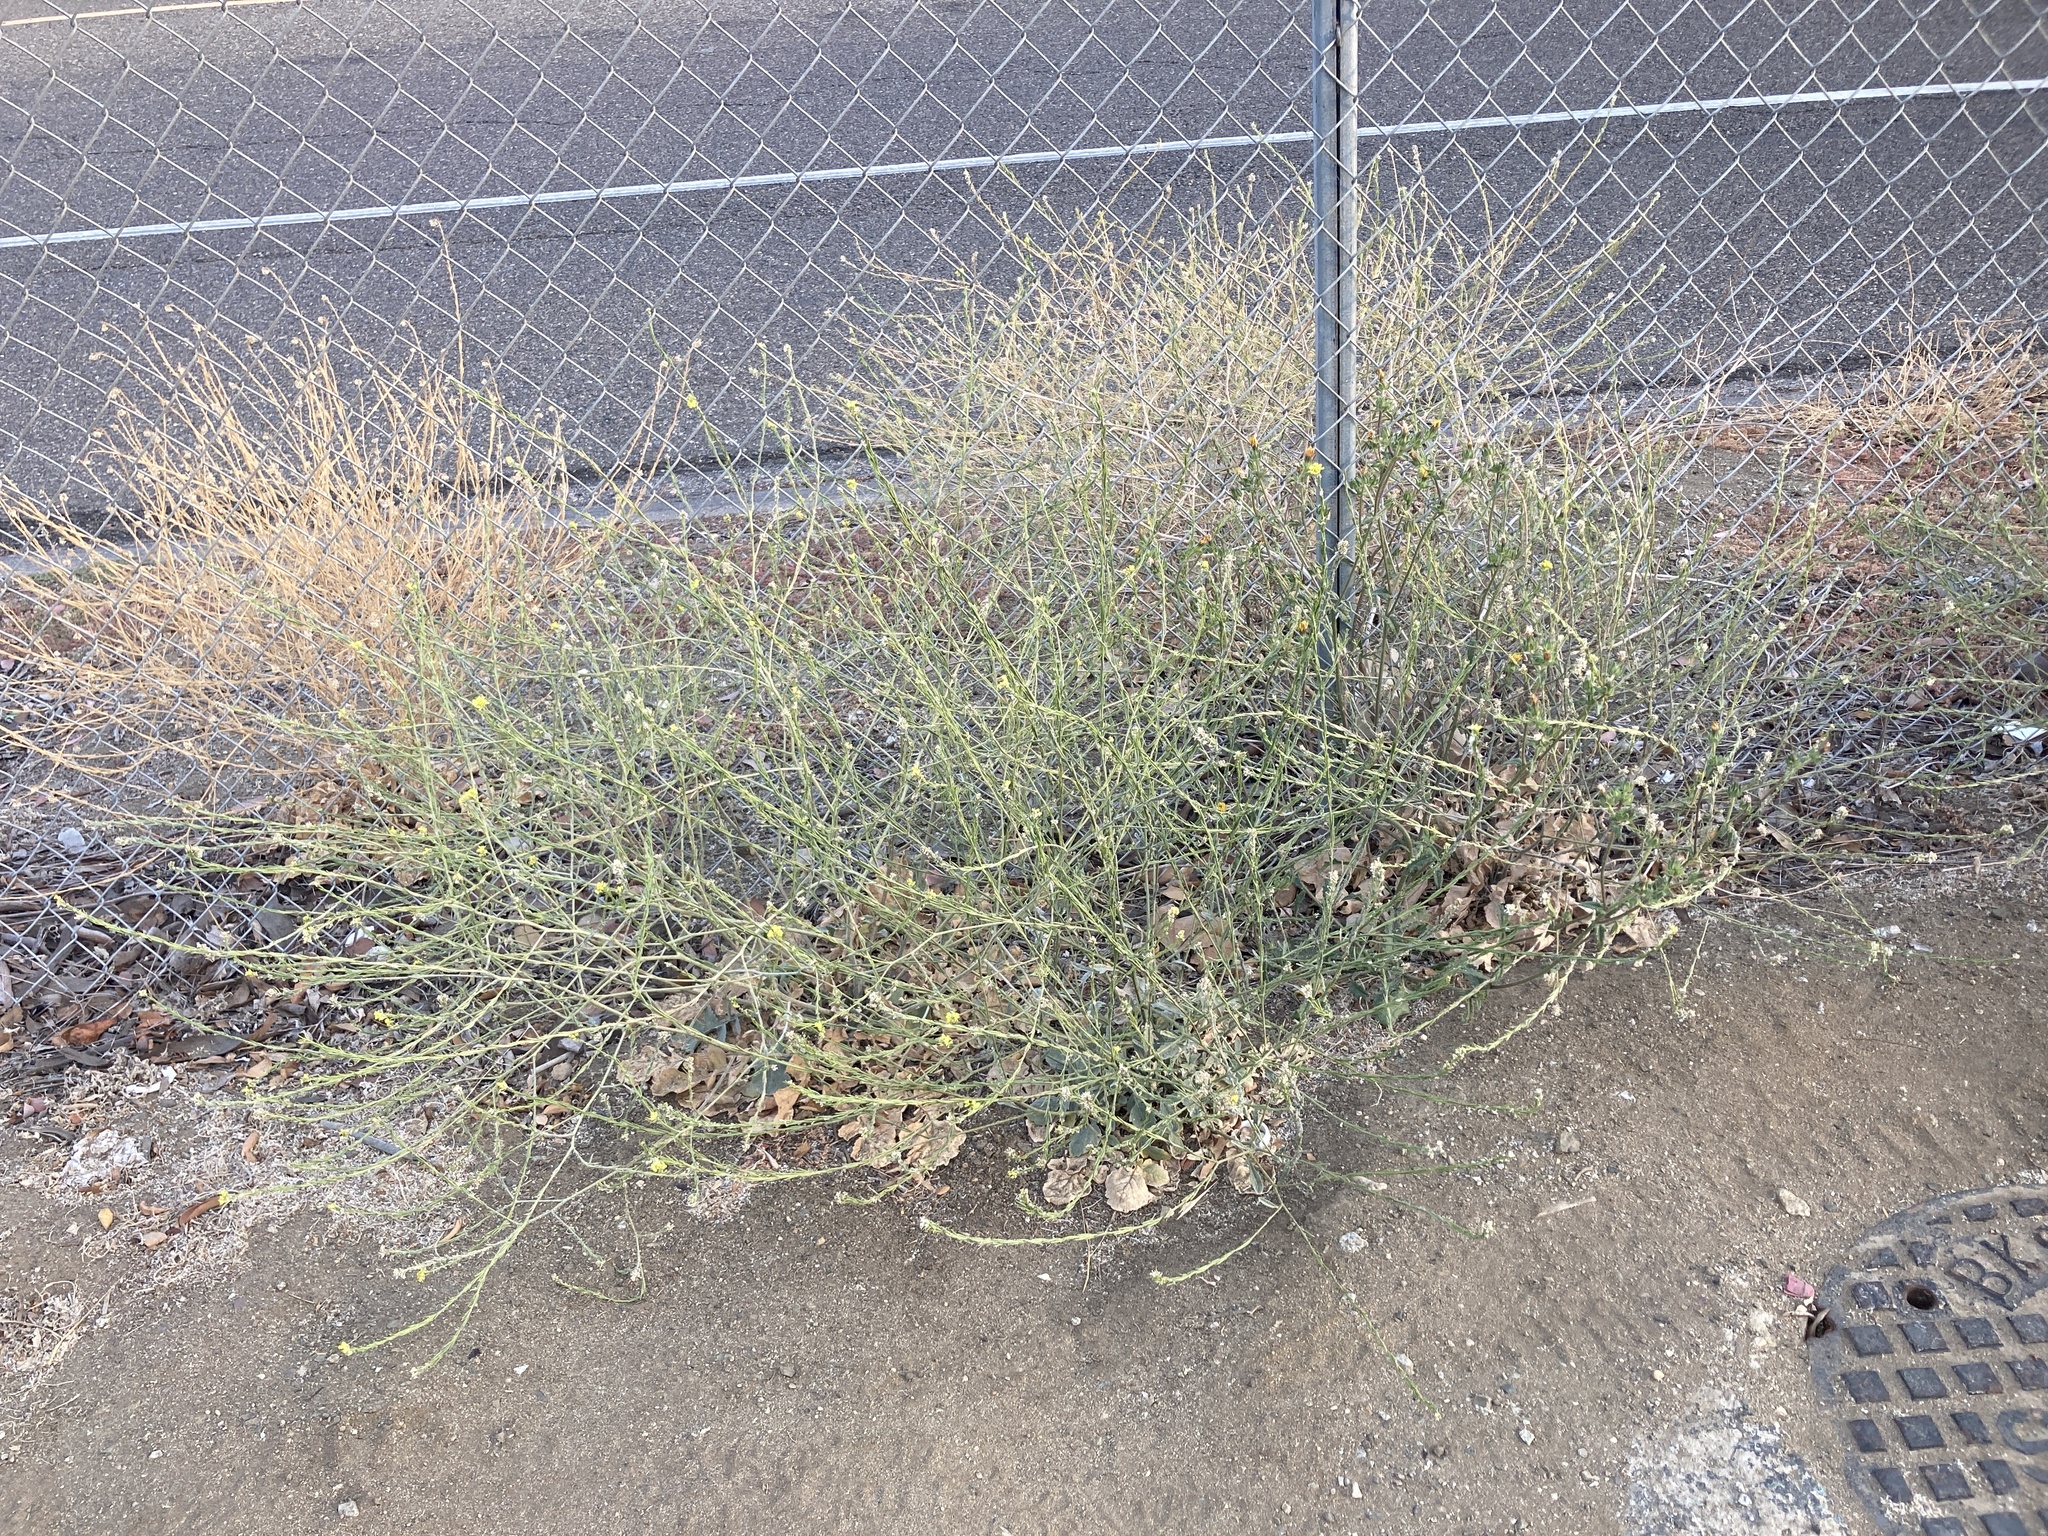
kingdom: Plantae
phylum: Tracheophyta
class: Magnoliopsida
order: Brassicales
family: Brassicaceae
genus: Hirschfeldia
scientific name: Hirschfeldia incana
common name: Hoary mustard
